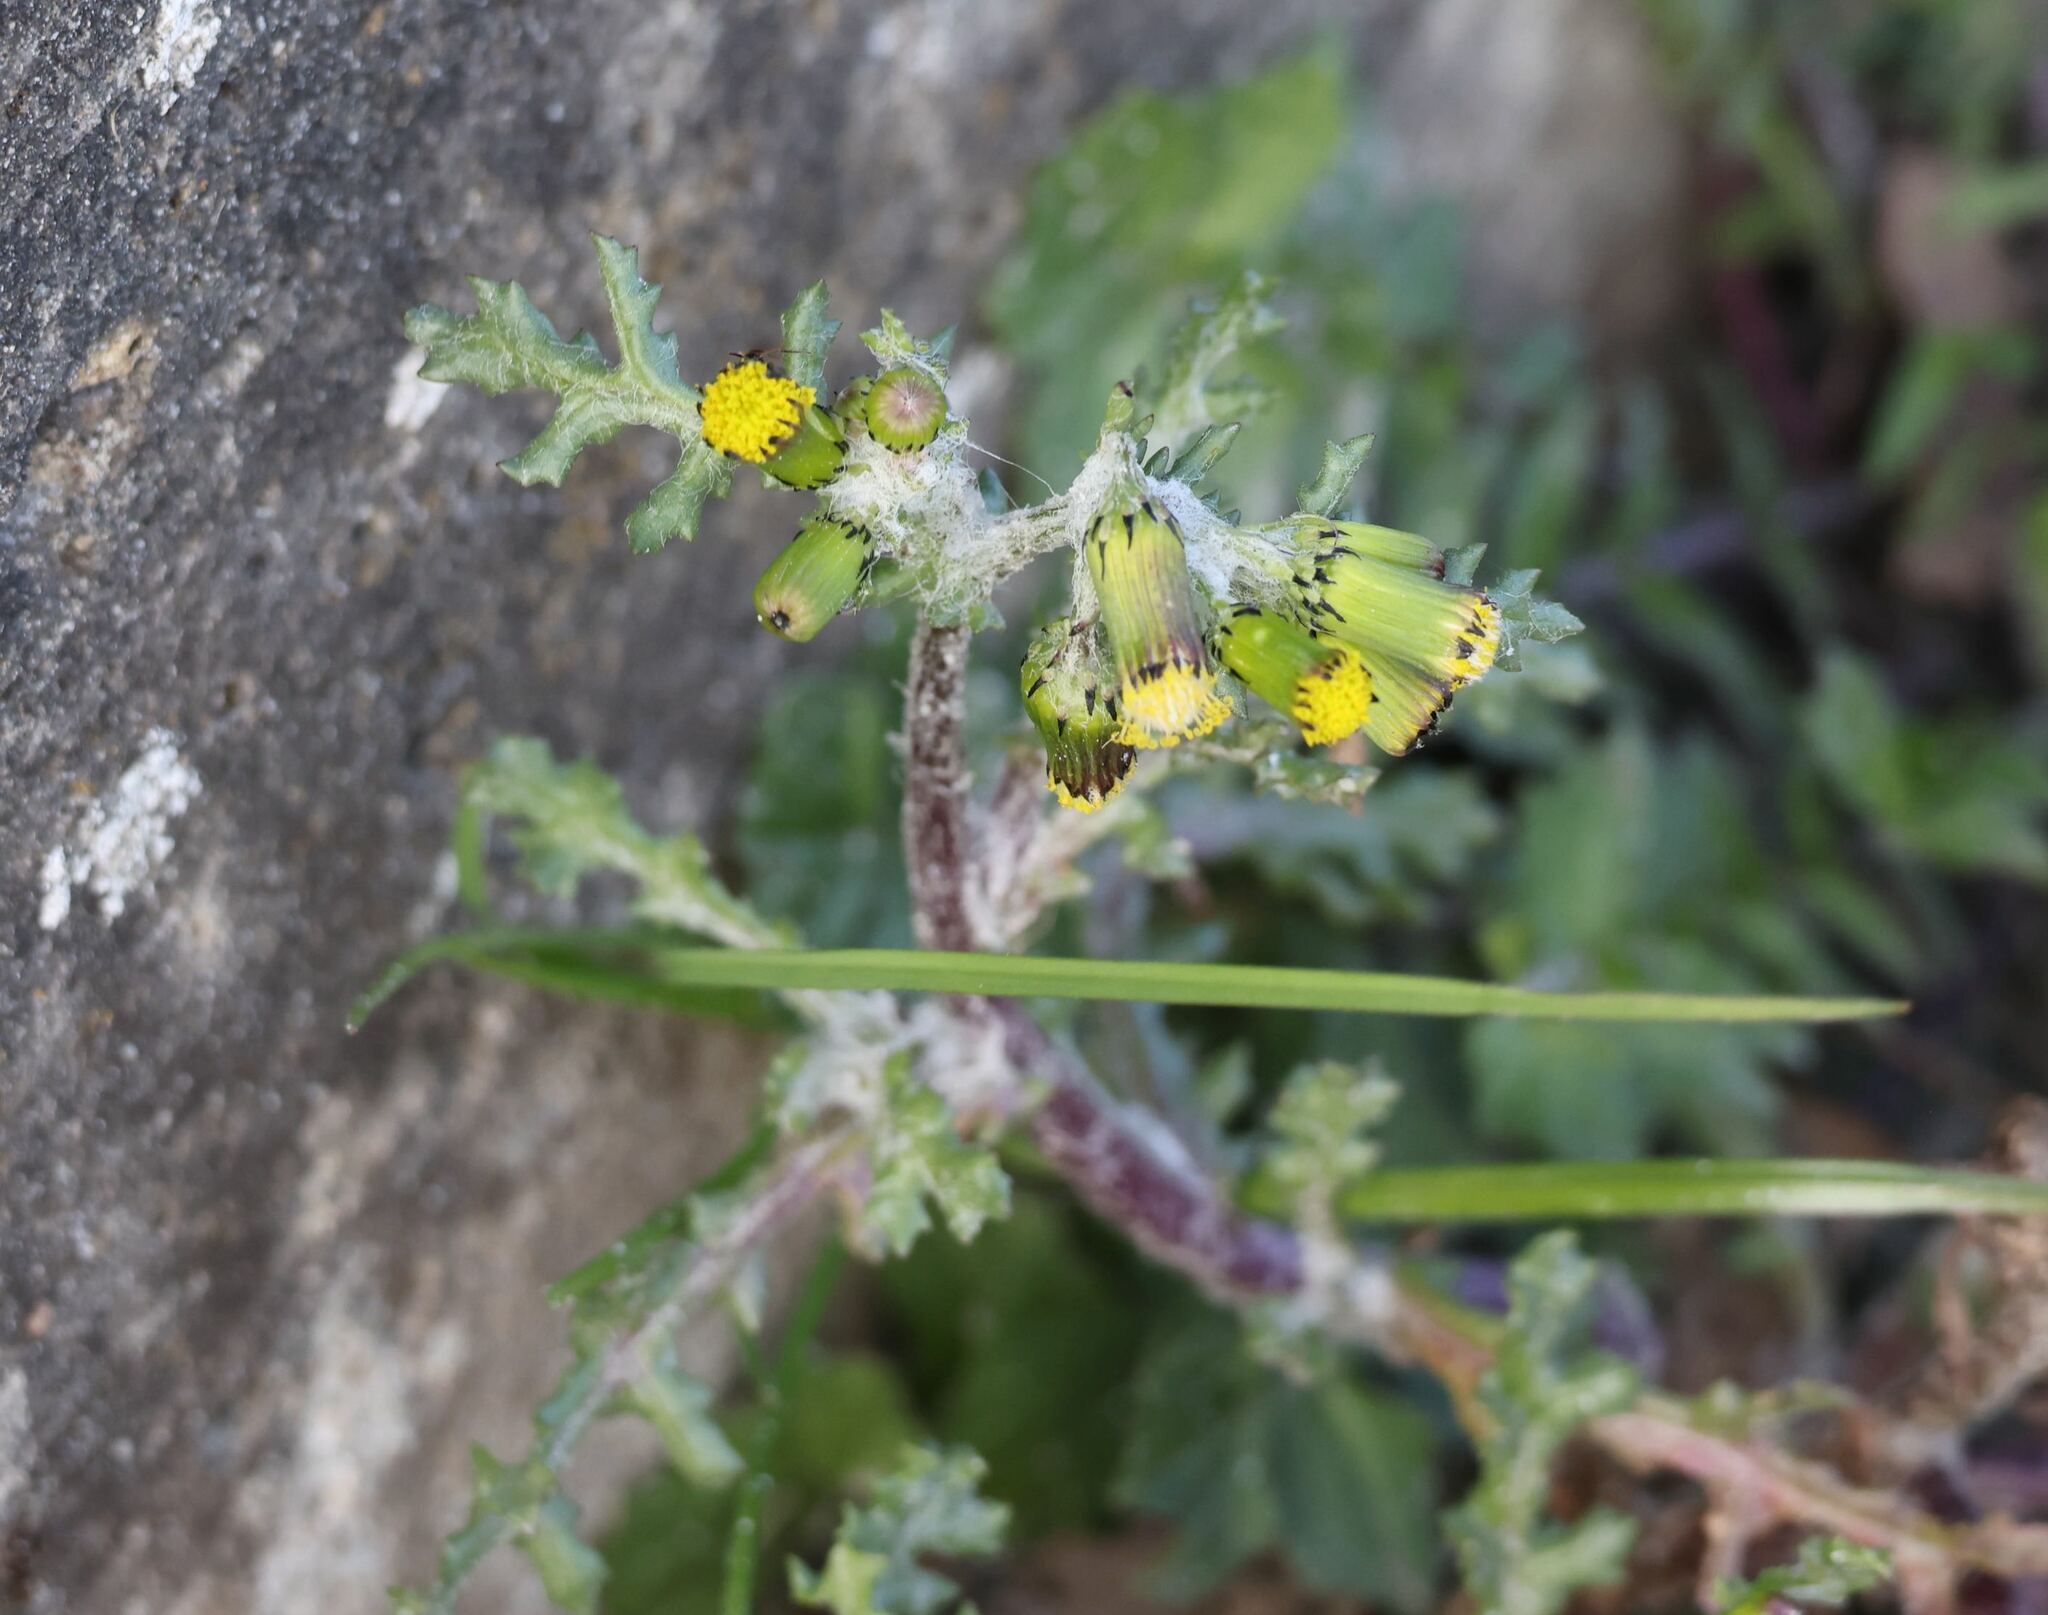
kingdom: Plantae
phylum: Tracheophyta
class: Magnoliopsida
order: Asterales
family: Asteraceae
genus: Senecio
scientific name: Senecio vulgaris
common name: Old-man-in-the-spring
